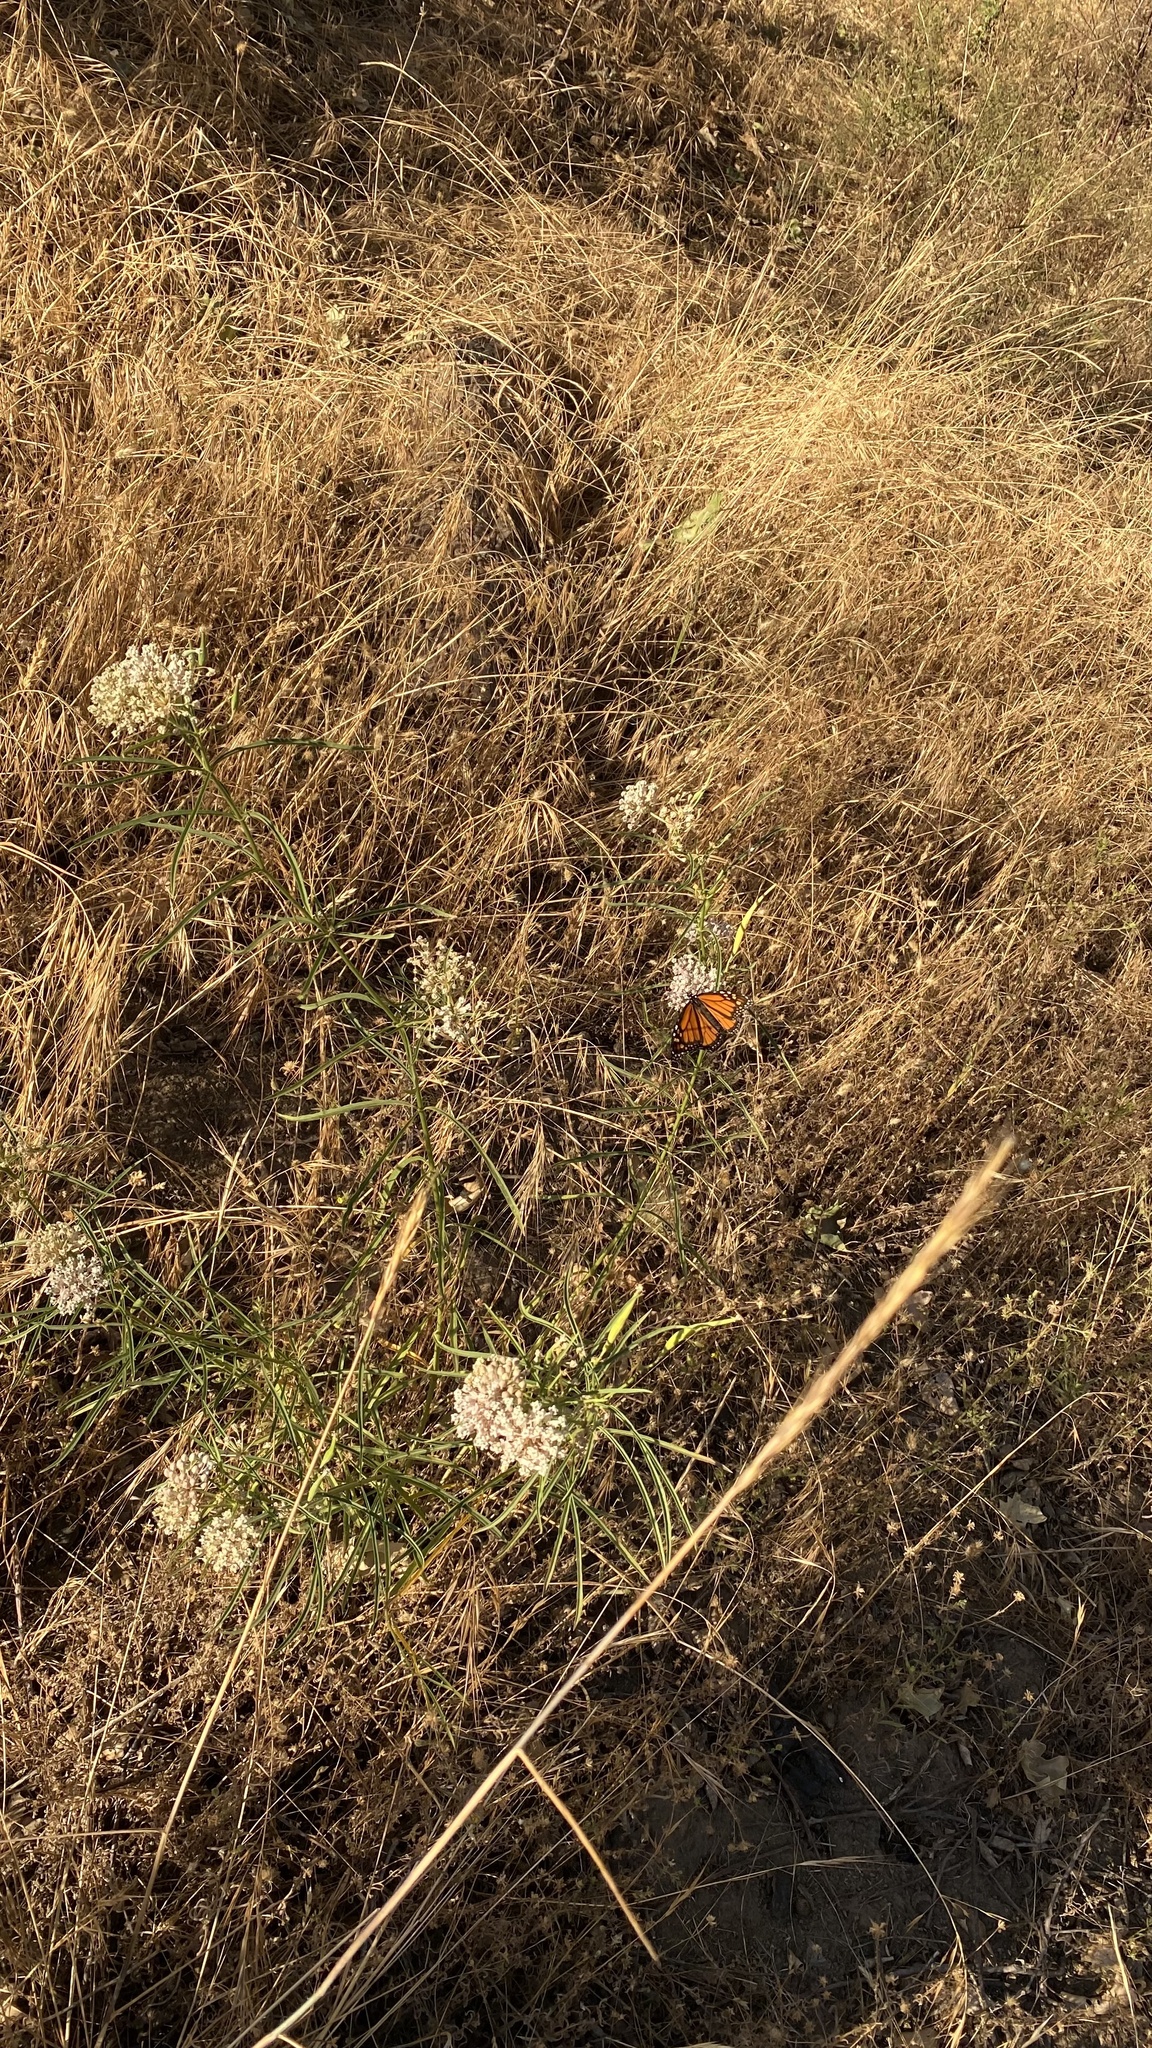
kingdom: Animalia
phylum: Arthropoda
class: Insecta
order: Lepidoptera
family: Nymphalidae
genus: Danaus
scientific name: Danaus plexippus
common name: Monarch
